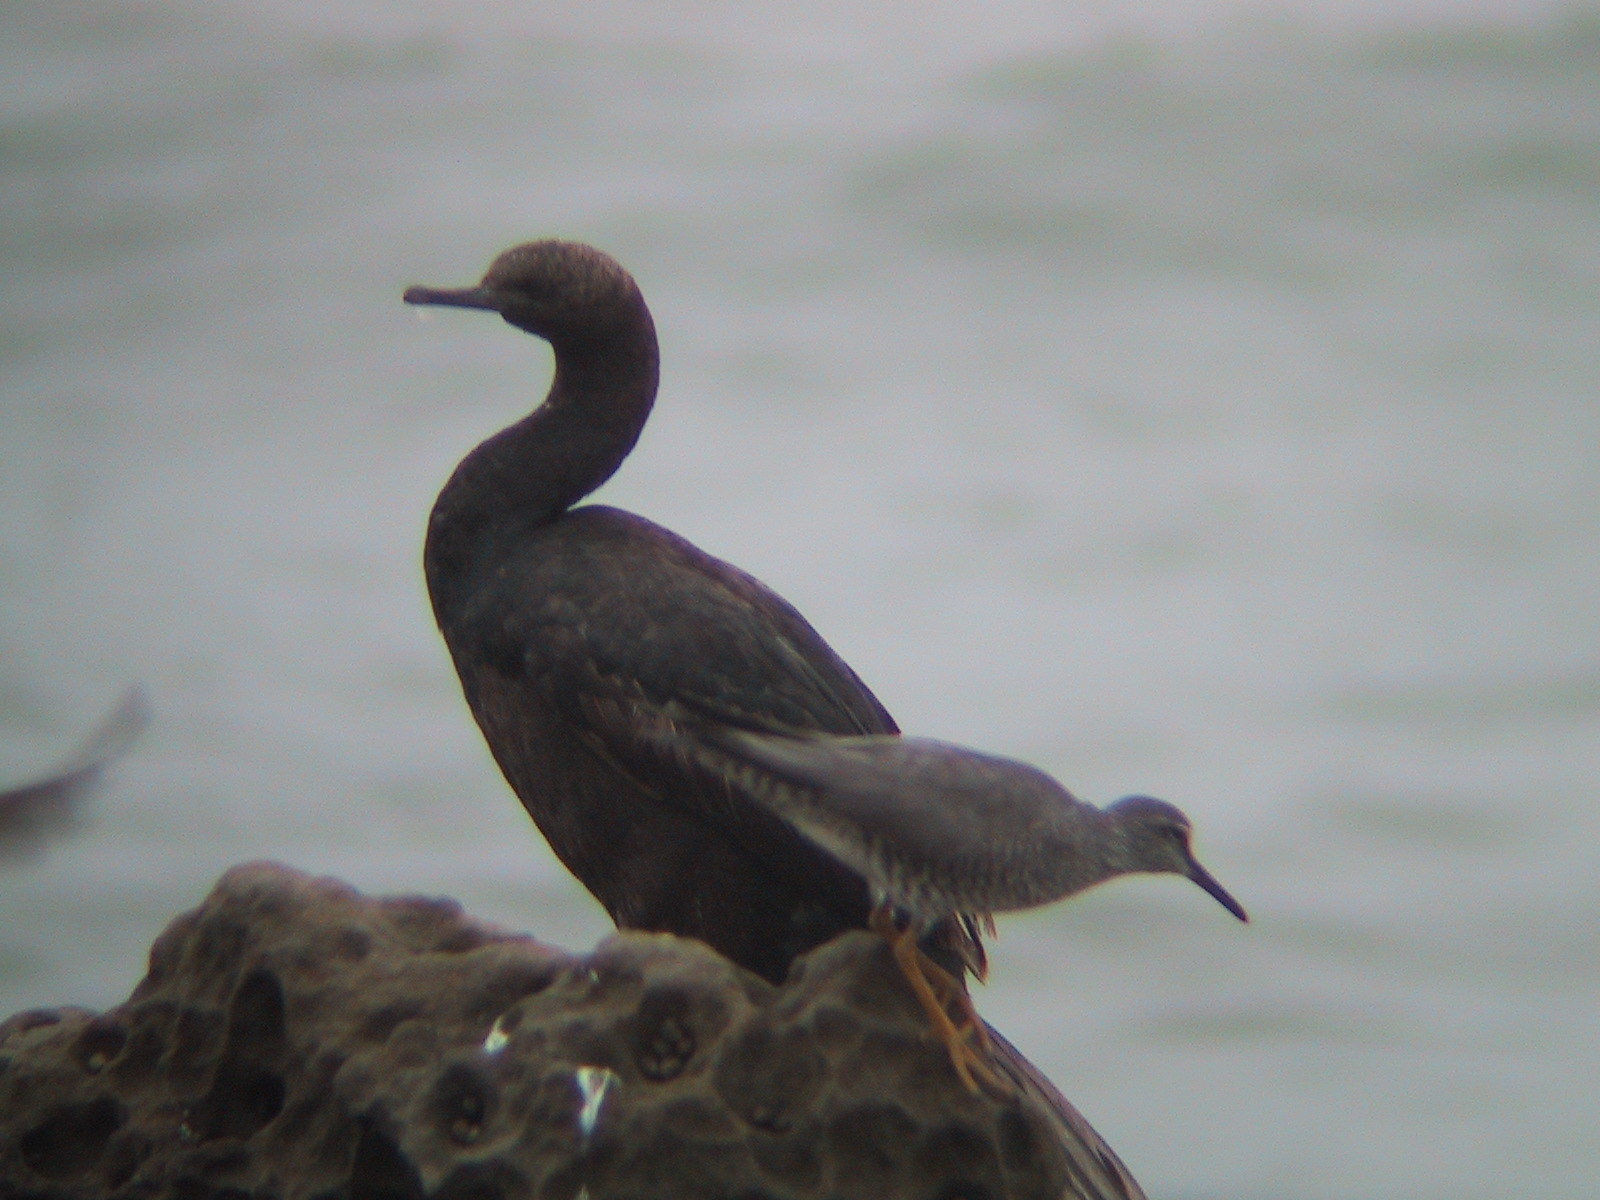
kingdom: Animalia
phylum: Chordata
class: Aves
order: Suliformes
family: Phalacrocoracidae
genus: Phalacrocorax
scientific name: Phalacrocorax pelagicus
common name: Pelagic cormorant
